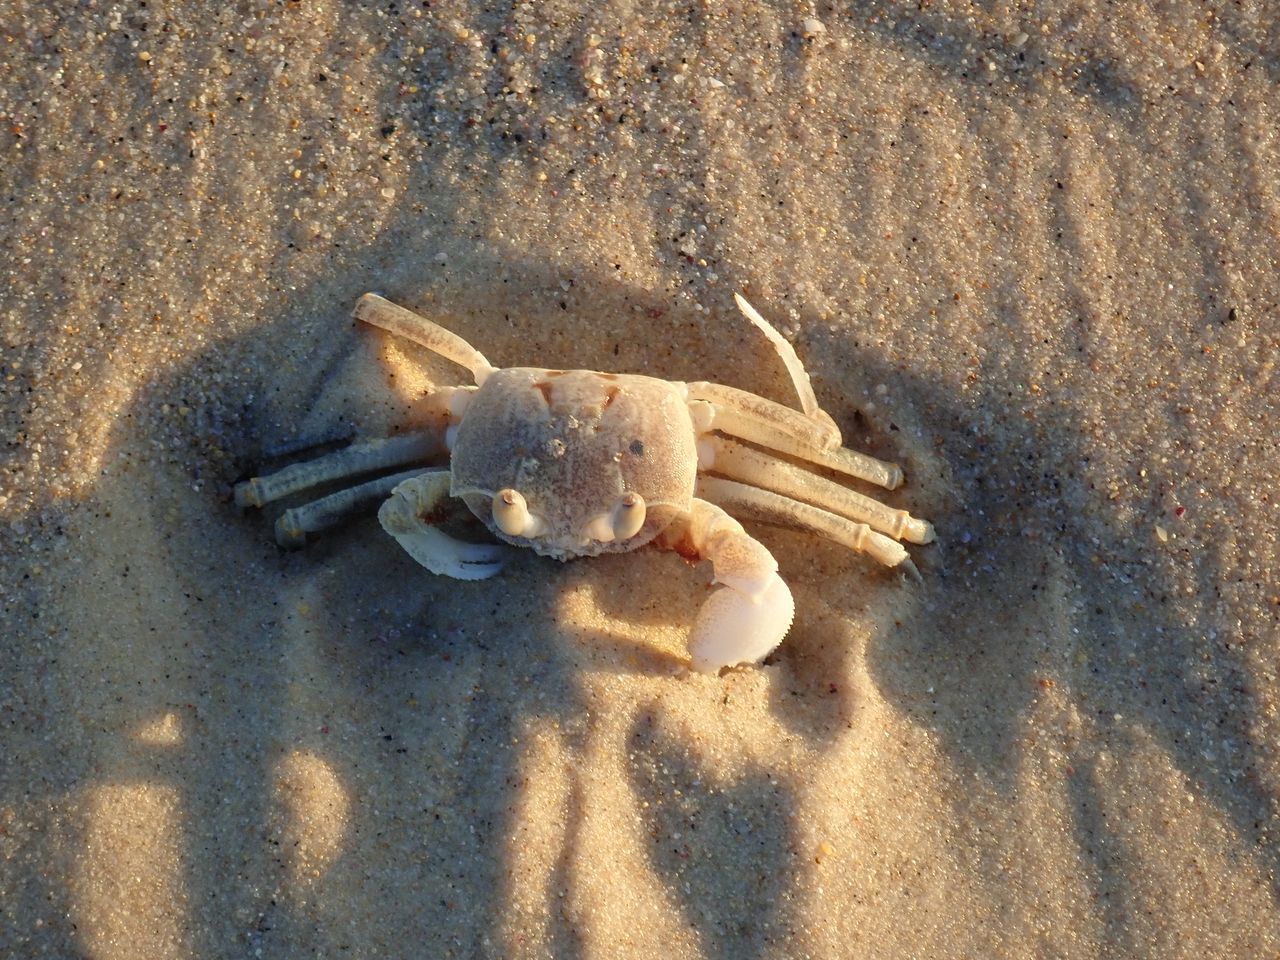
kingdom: Animalia
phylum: Arthropoda
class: Malacostraca
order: Decapoda
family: Ocypodidae
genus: Ocypode
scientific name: Ocypode ceratophthalmus
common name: Indo-pacific ghost crab
